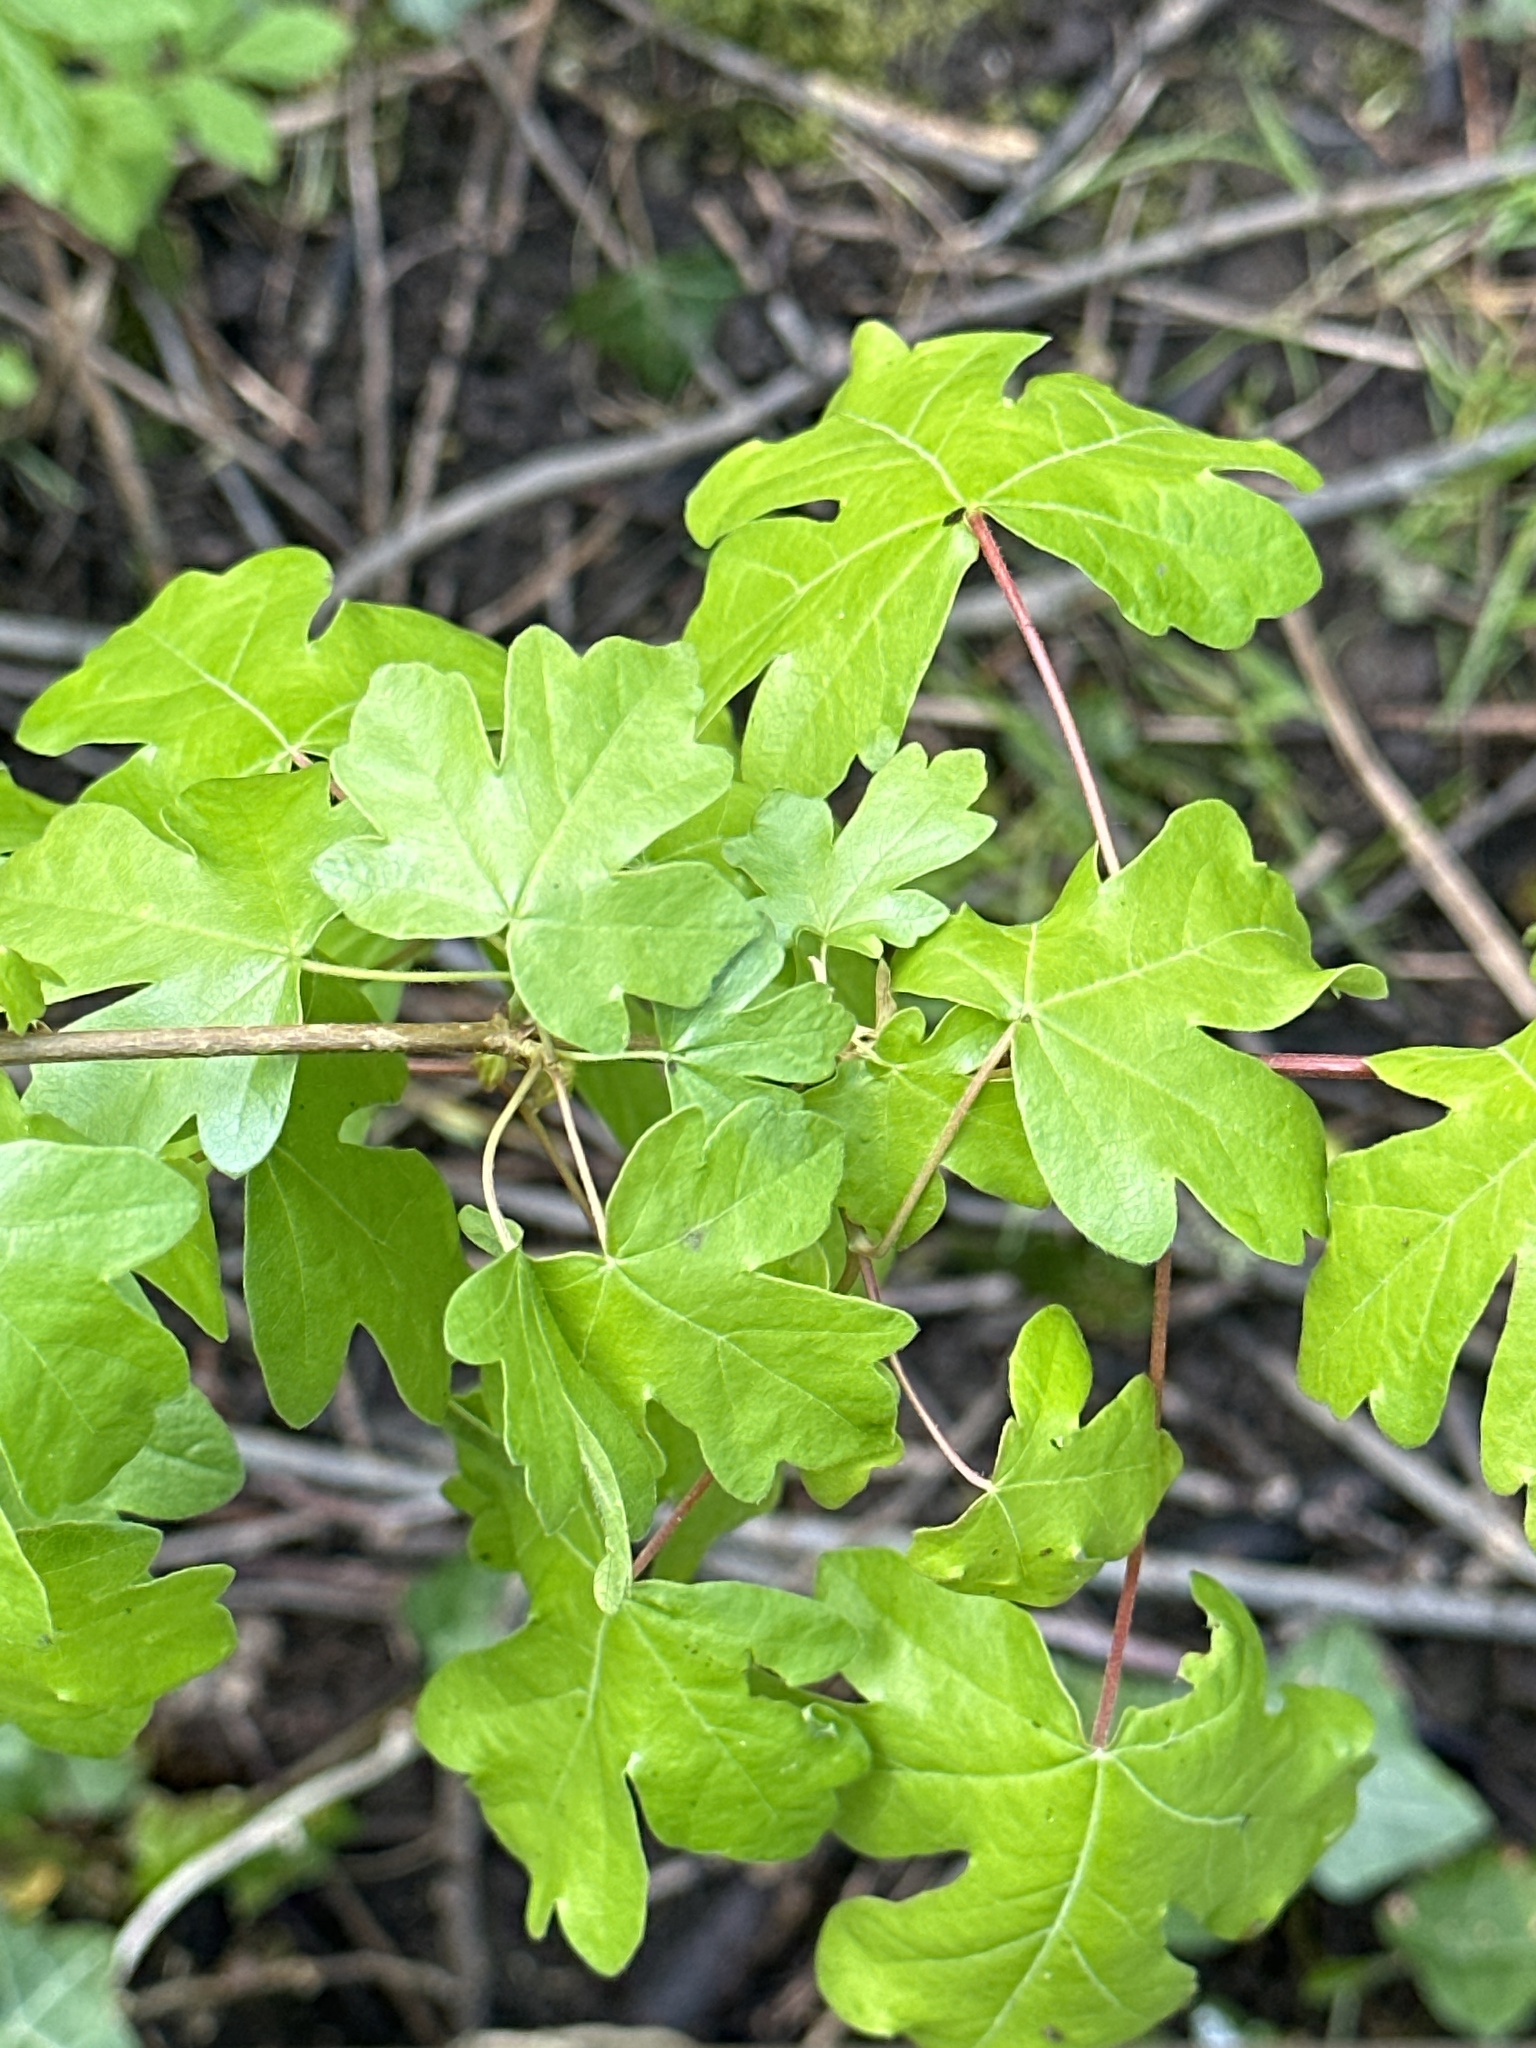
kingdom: Plantae
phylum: Tracheophyta
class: Magnoliopsida
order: Sapindales
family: Sapindaceae
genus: Acer
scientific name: Acer campestre
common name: Field maple
